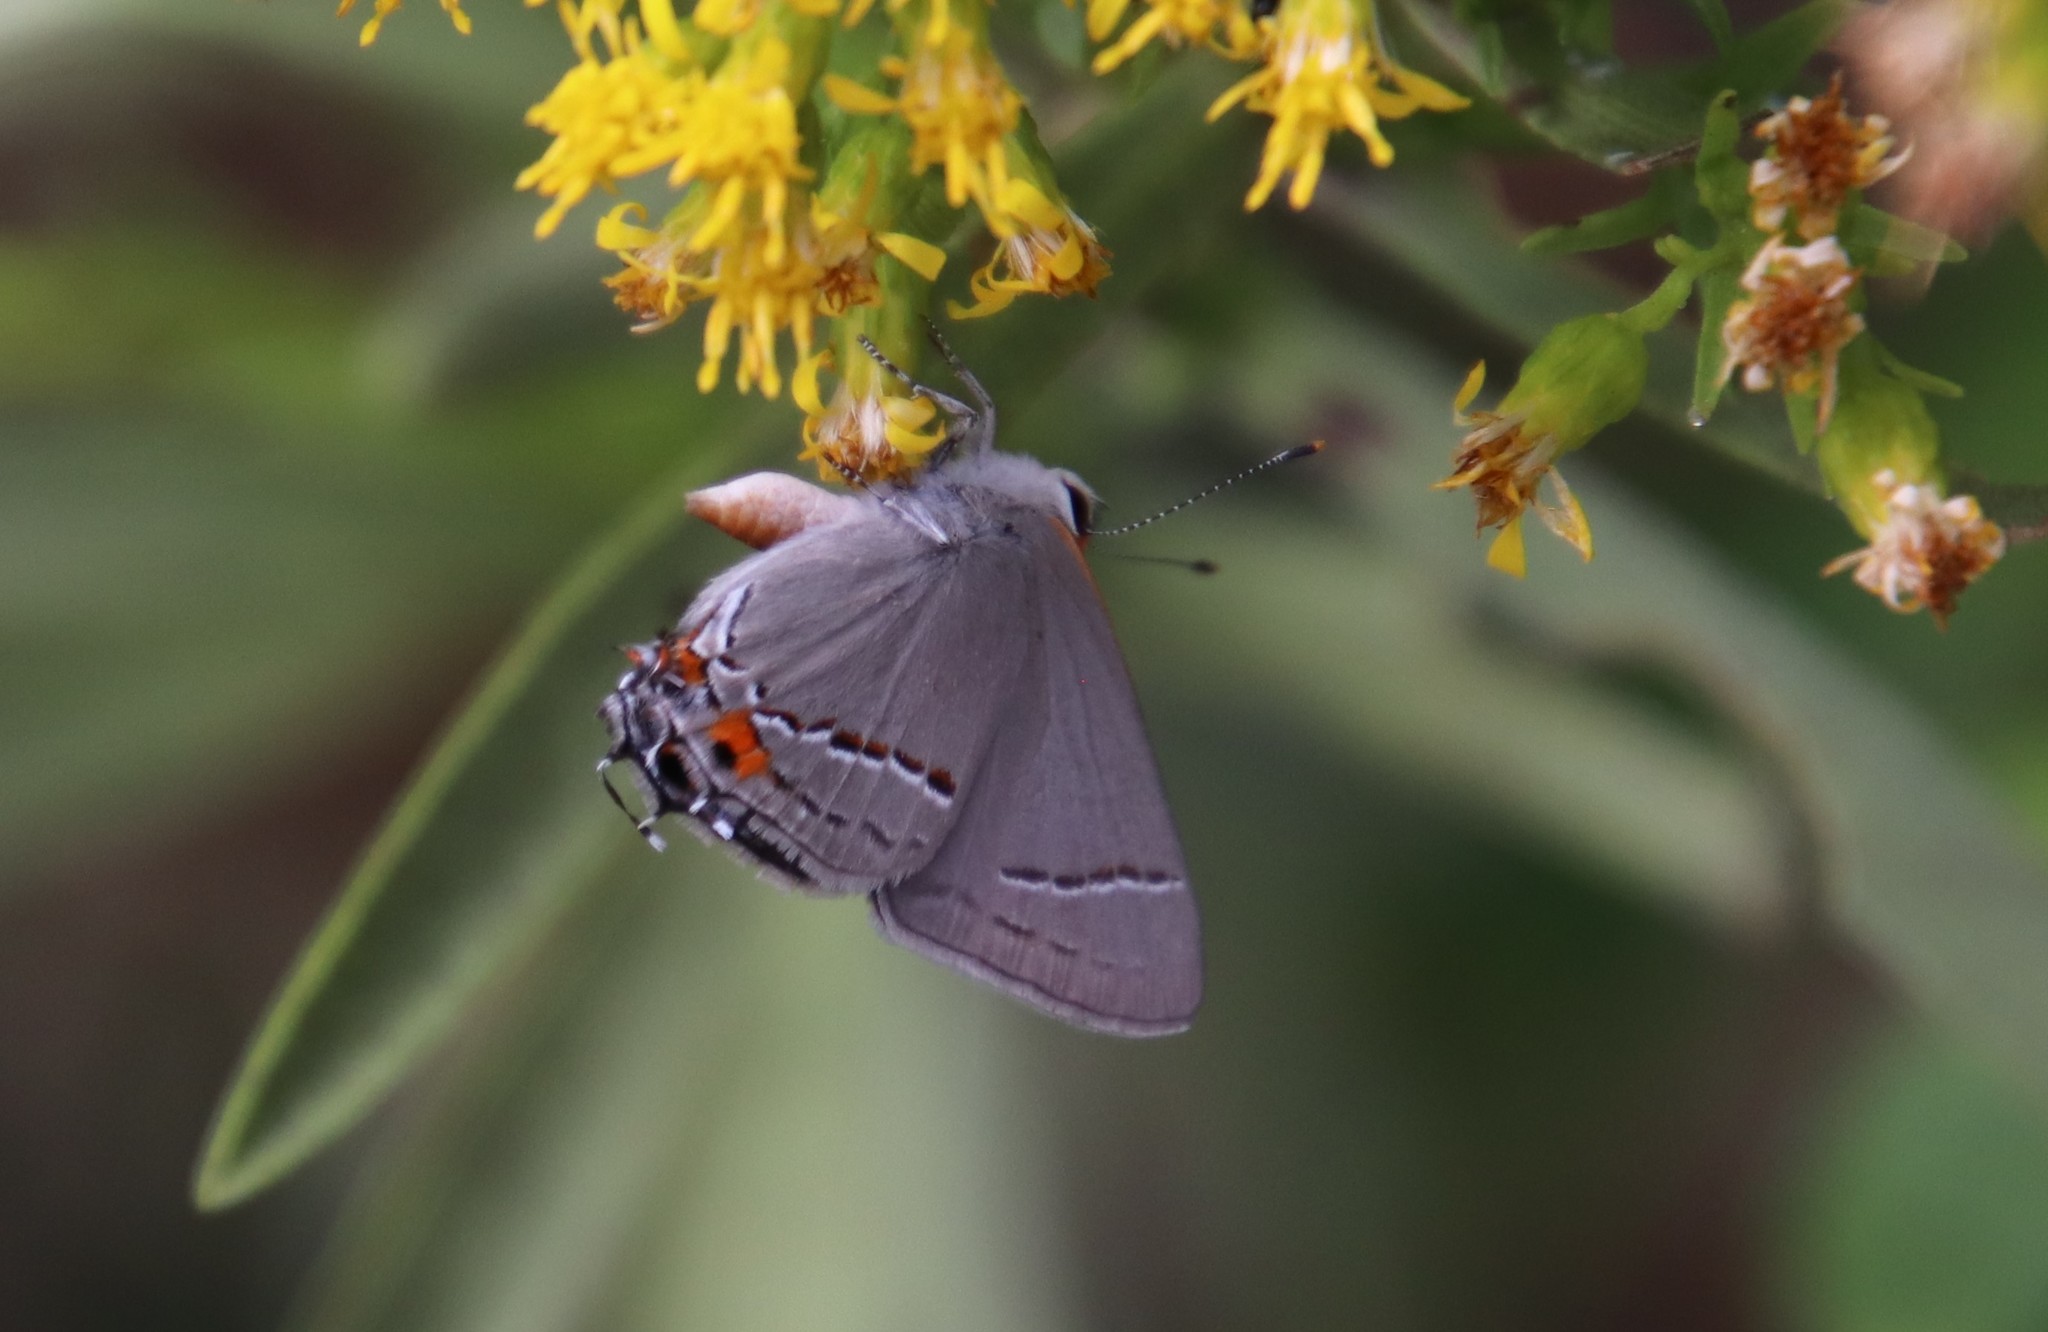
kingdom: Animalia
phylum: Arthropoda
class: Insecta
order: Lepidoptera
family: Lycaenidae
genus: Strymon
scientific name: Strymon melinus
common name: Gray hairstreak
